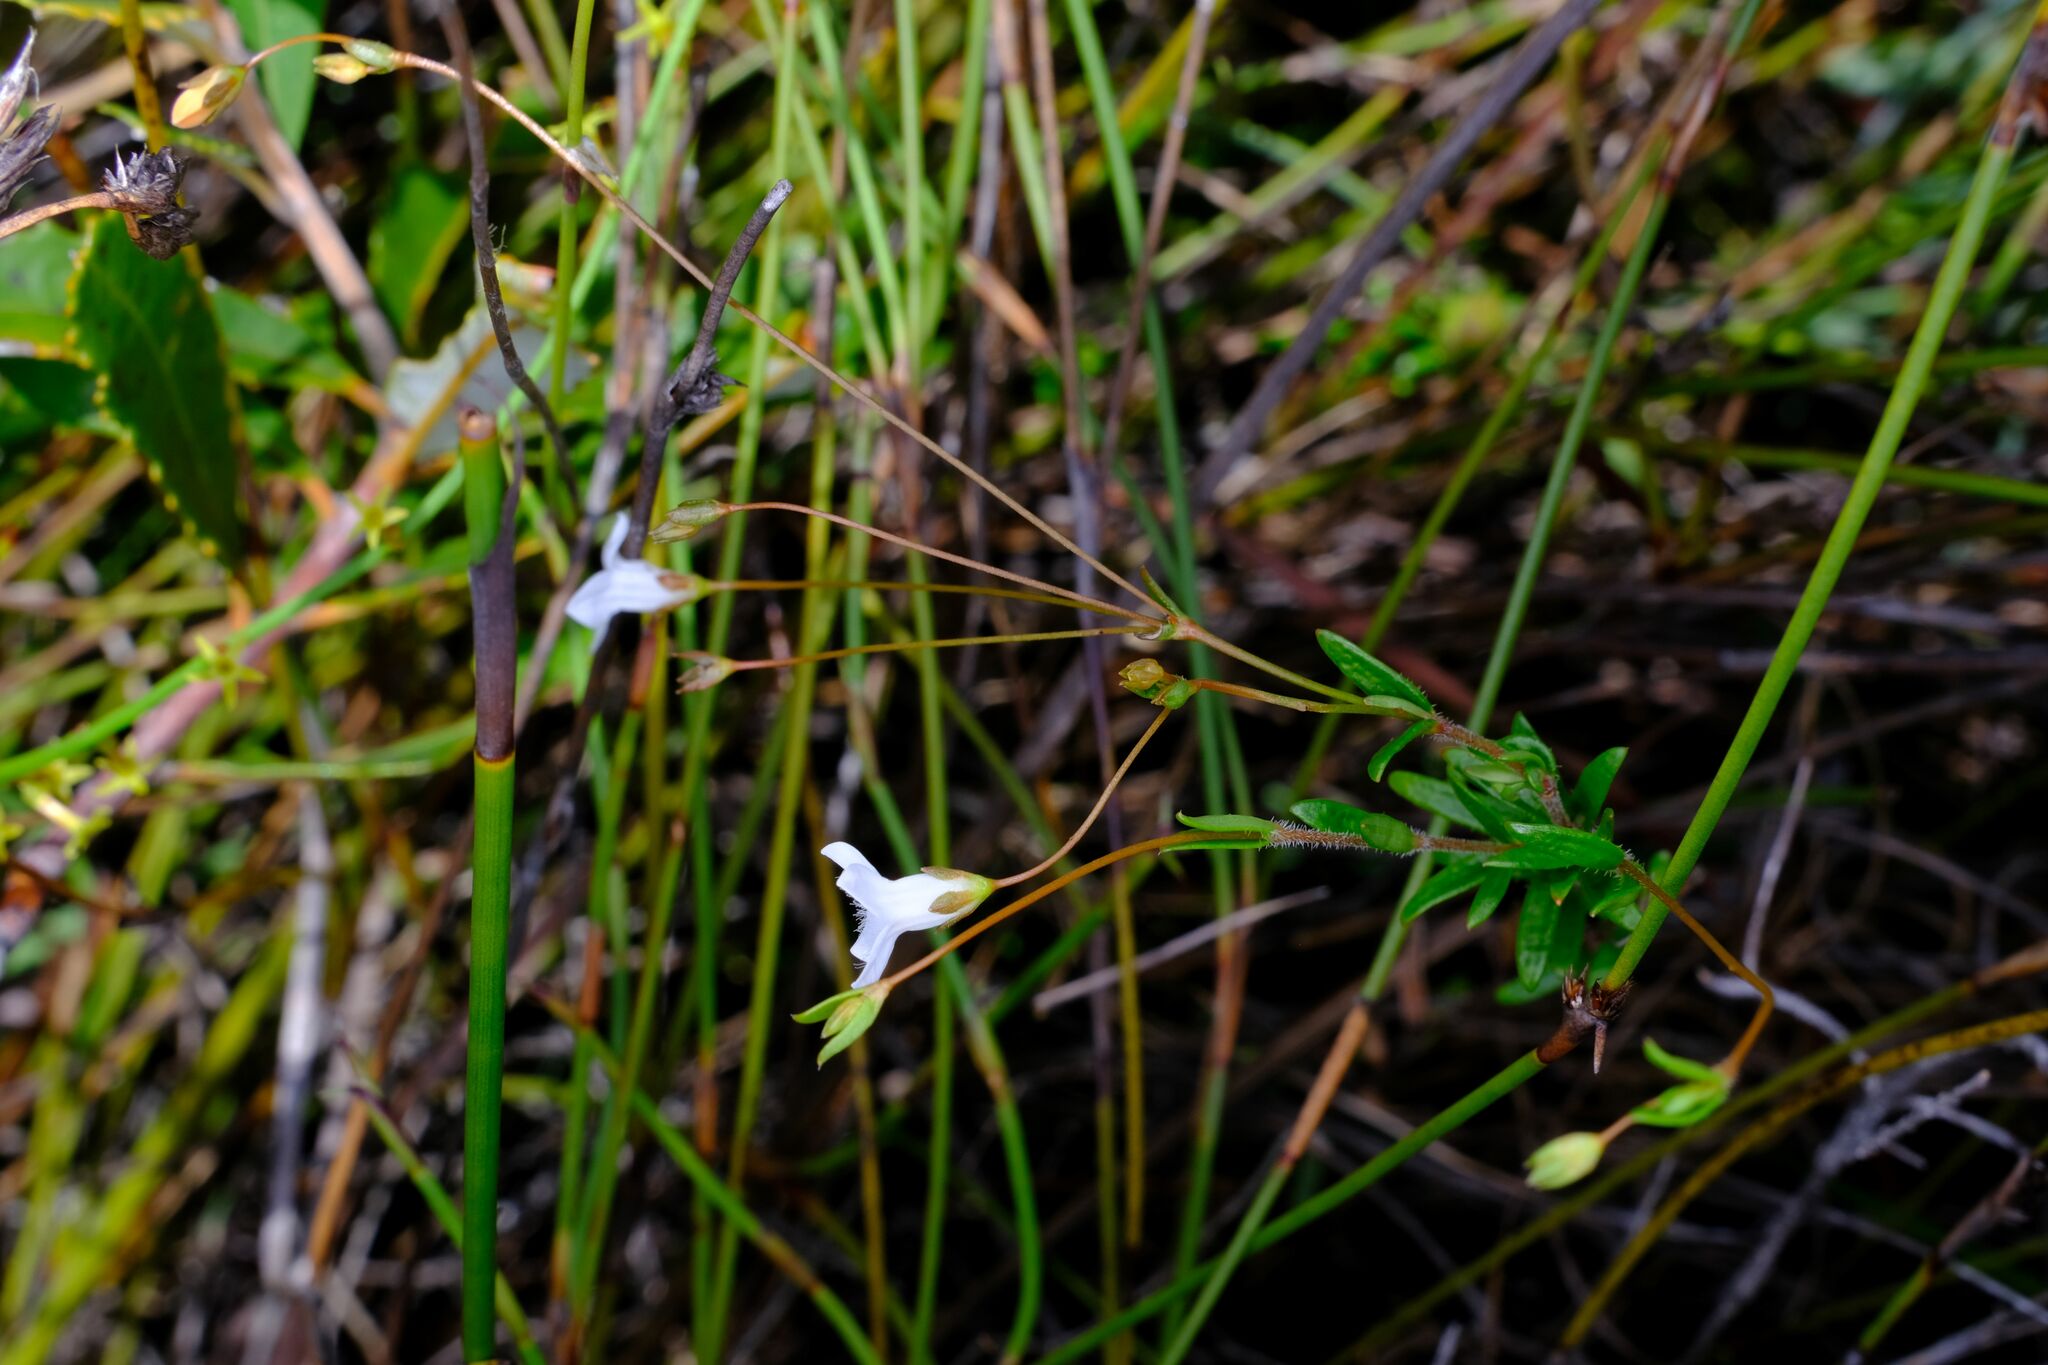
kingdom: Plantae
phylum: Tracheophyta
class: Magnoliopsida
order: Gentianales
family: Loganiaceae
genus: Mitrasacme
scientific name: Mitrasacme polymorpha
